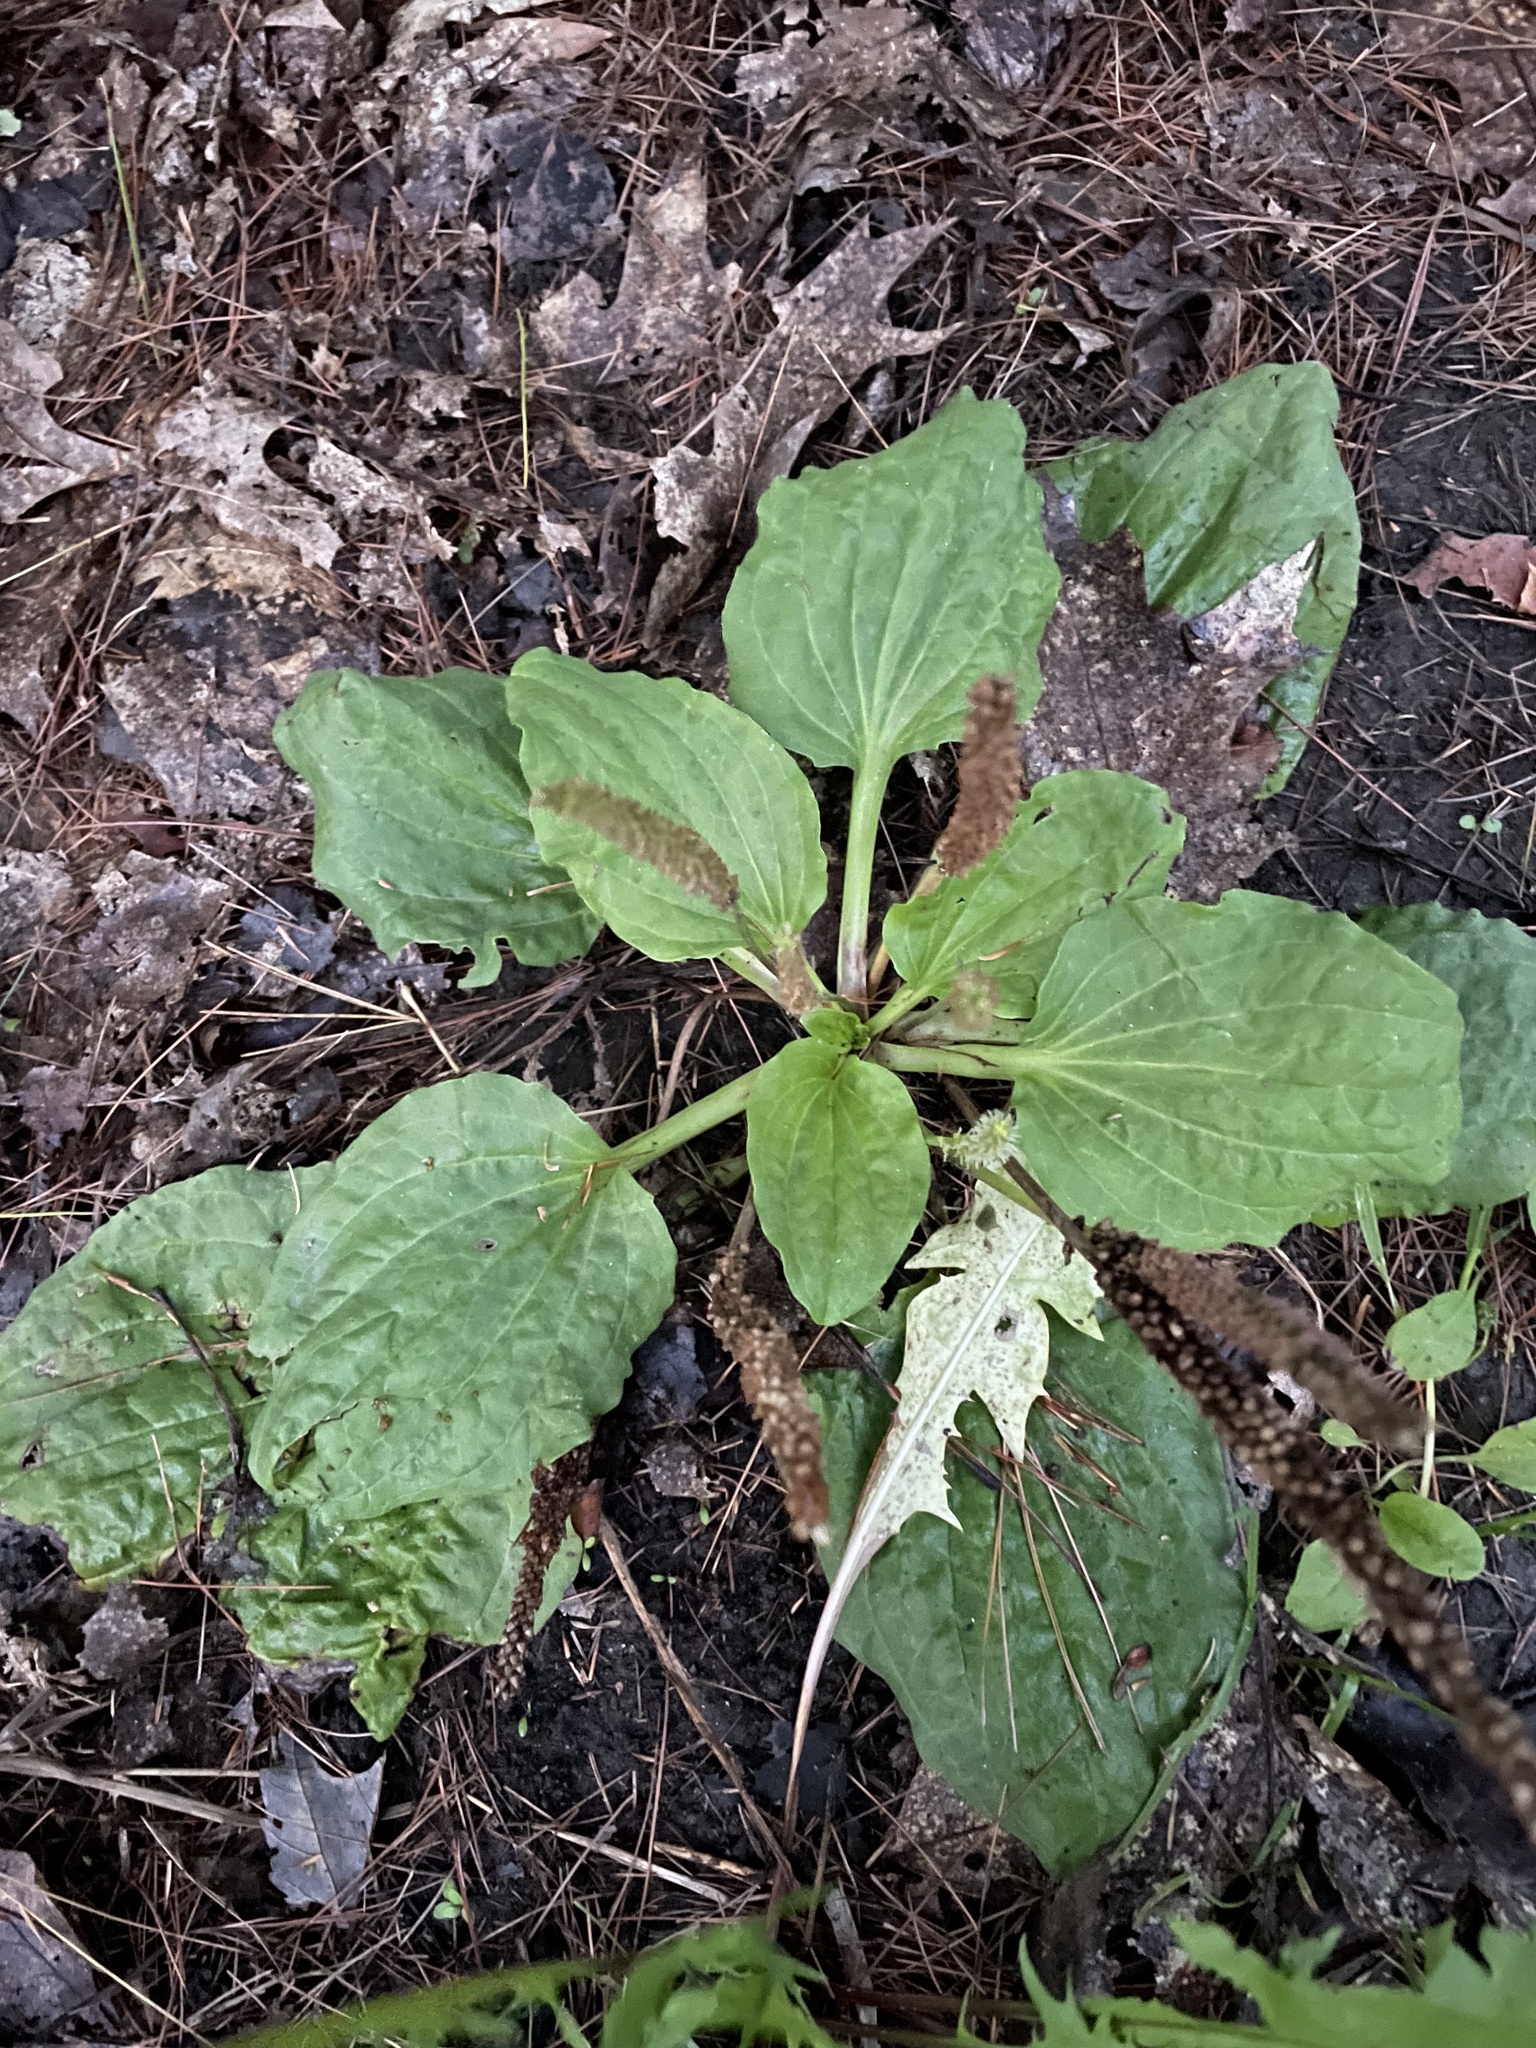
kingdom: Plantae
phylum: Tracheophyta
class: Magnoliopsida
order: Lamiales
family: Plantaginaceae
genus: Plantago
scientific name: Plantago major
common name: Common plantain
